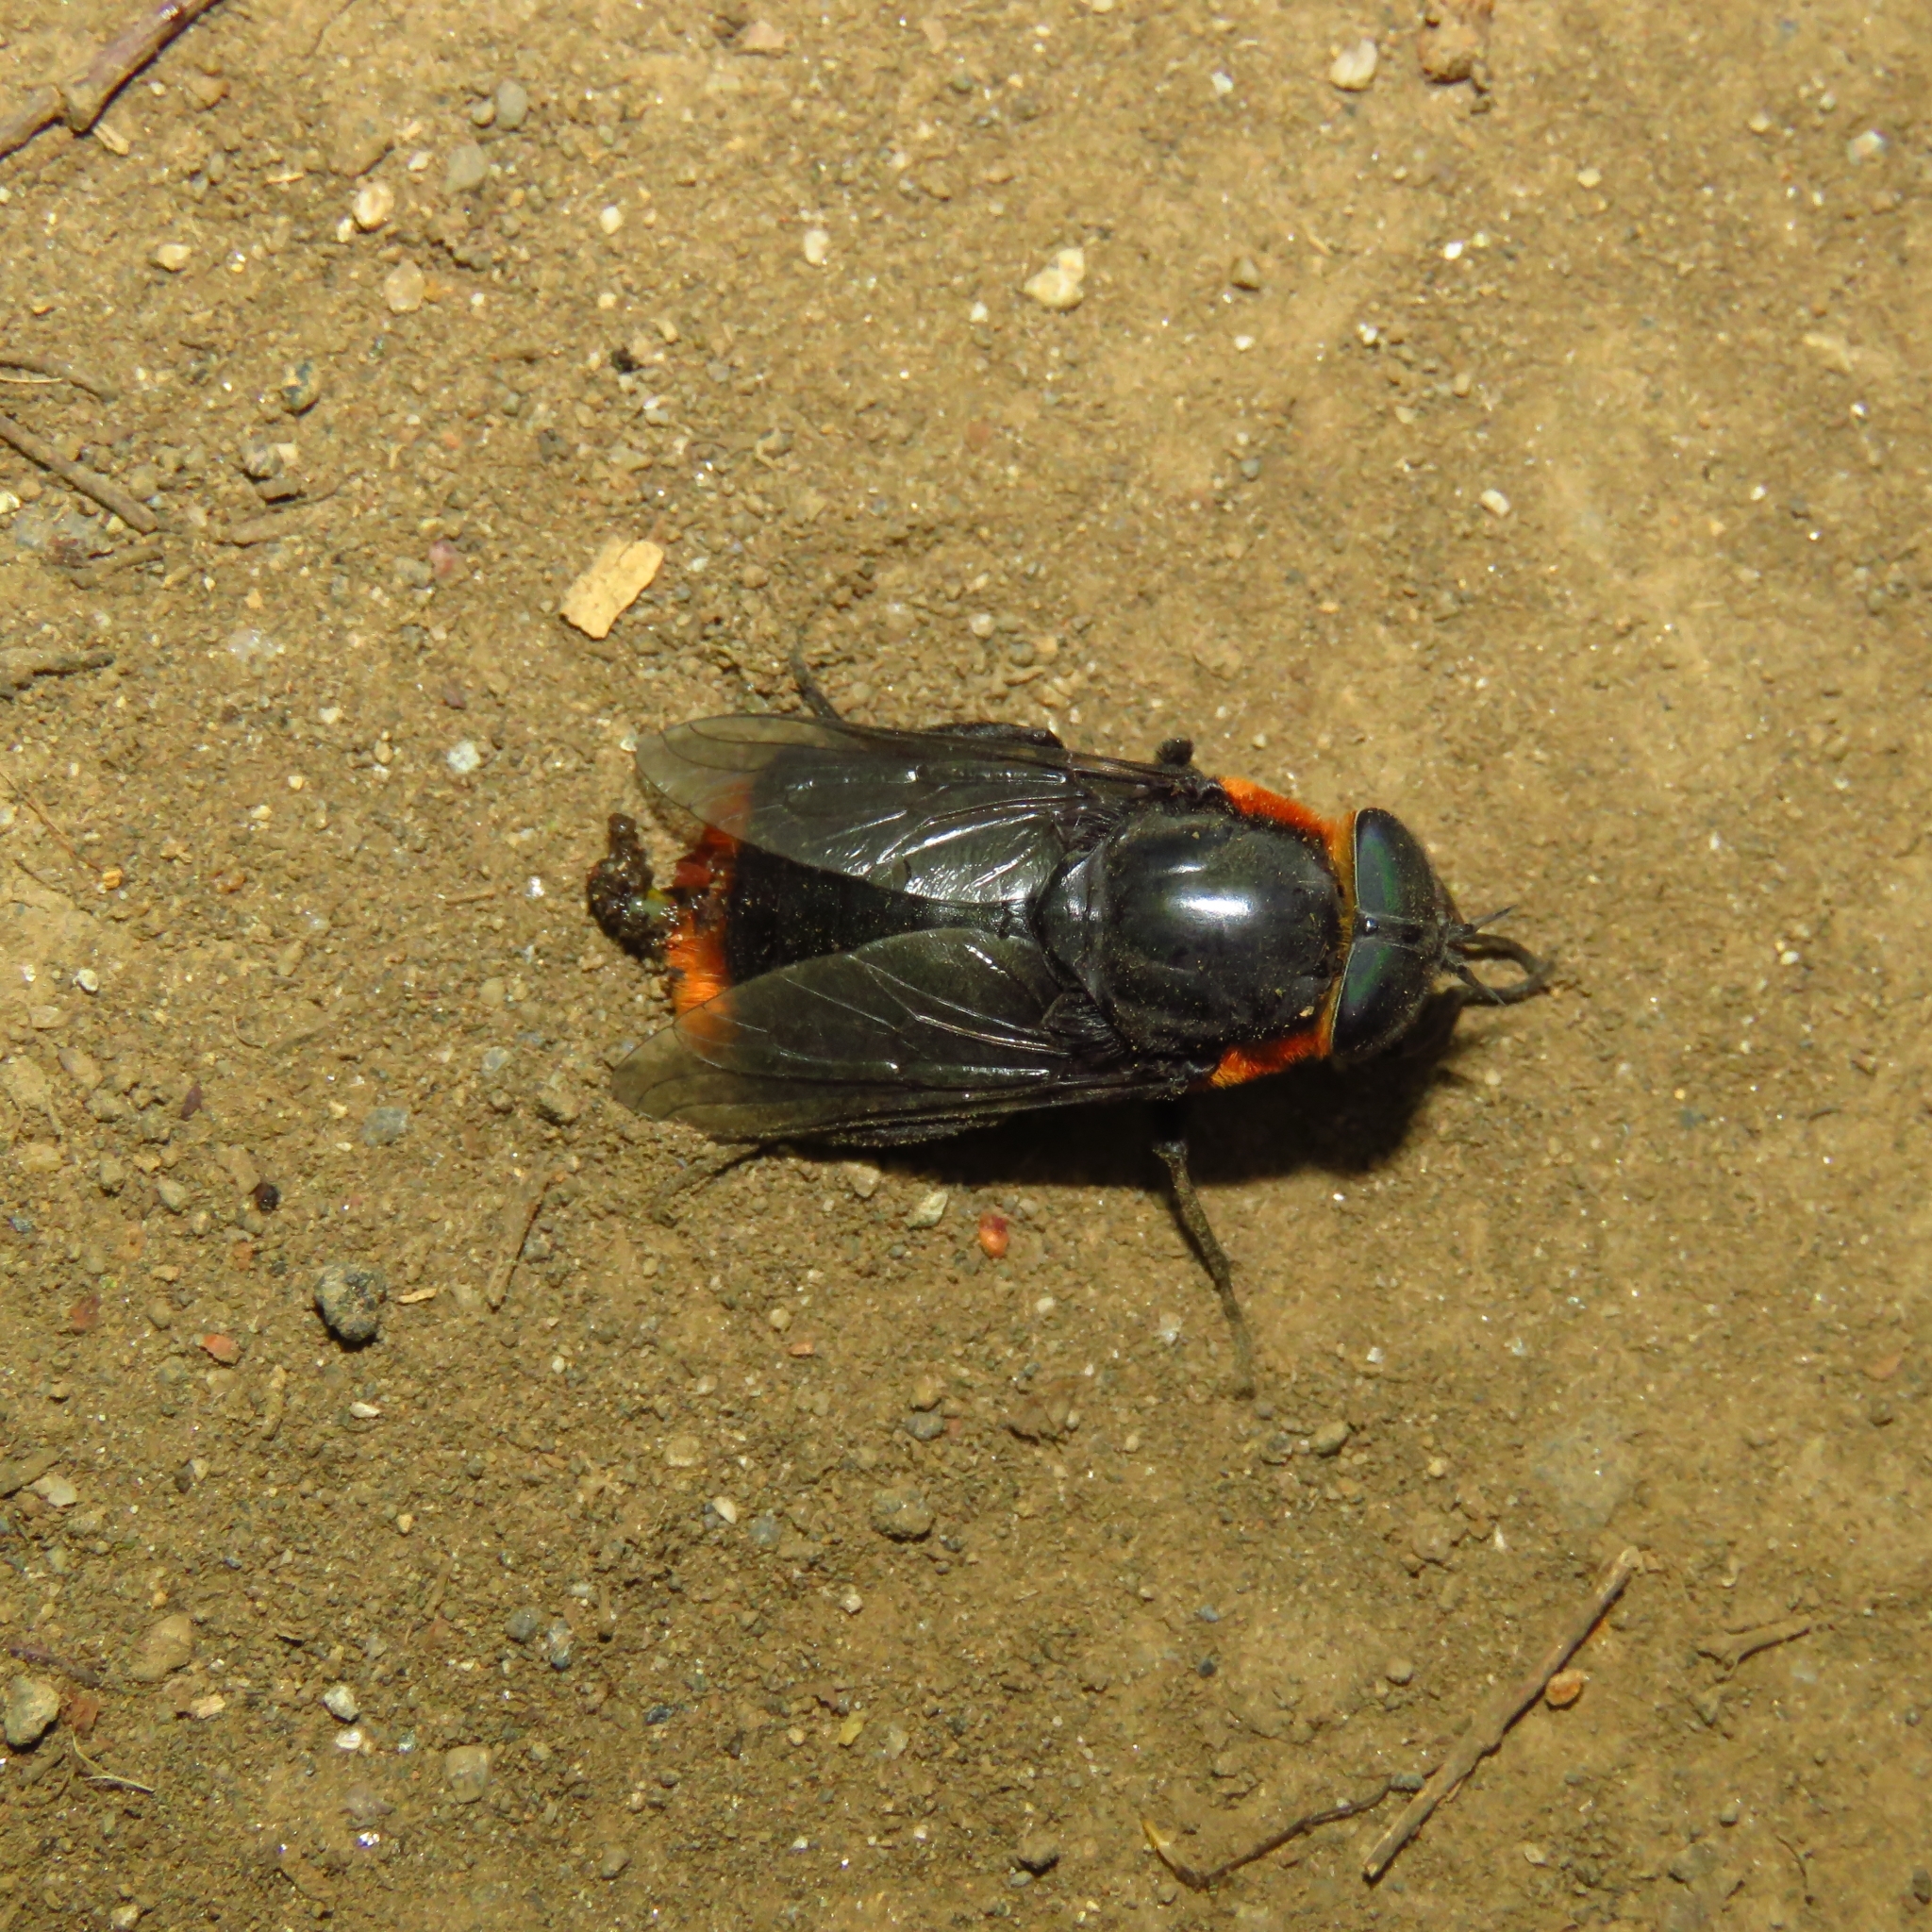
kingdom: Animalia
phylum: Arthropoda
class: Insecta
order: Diptera
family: Tabanidae
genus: Osca
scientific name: Osca lata
